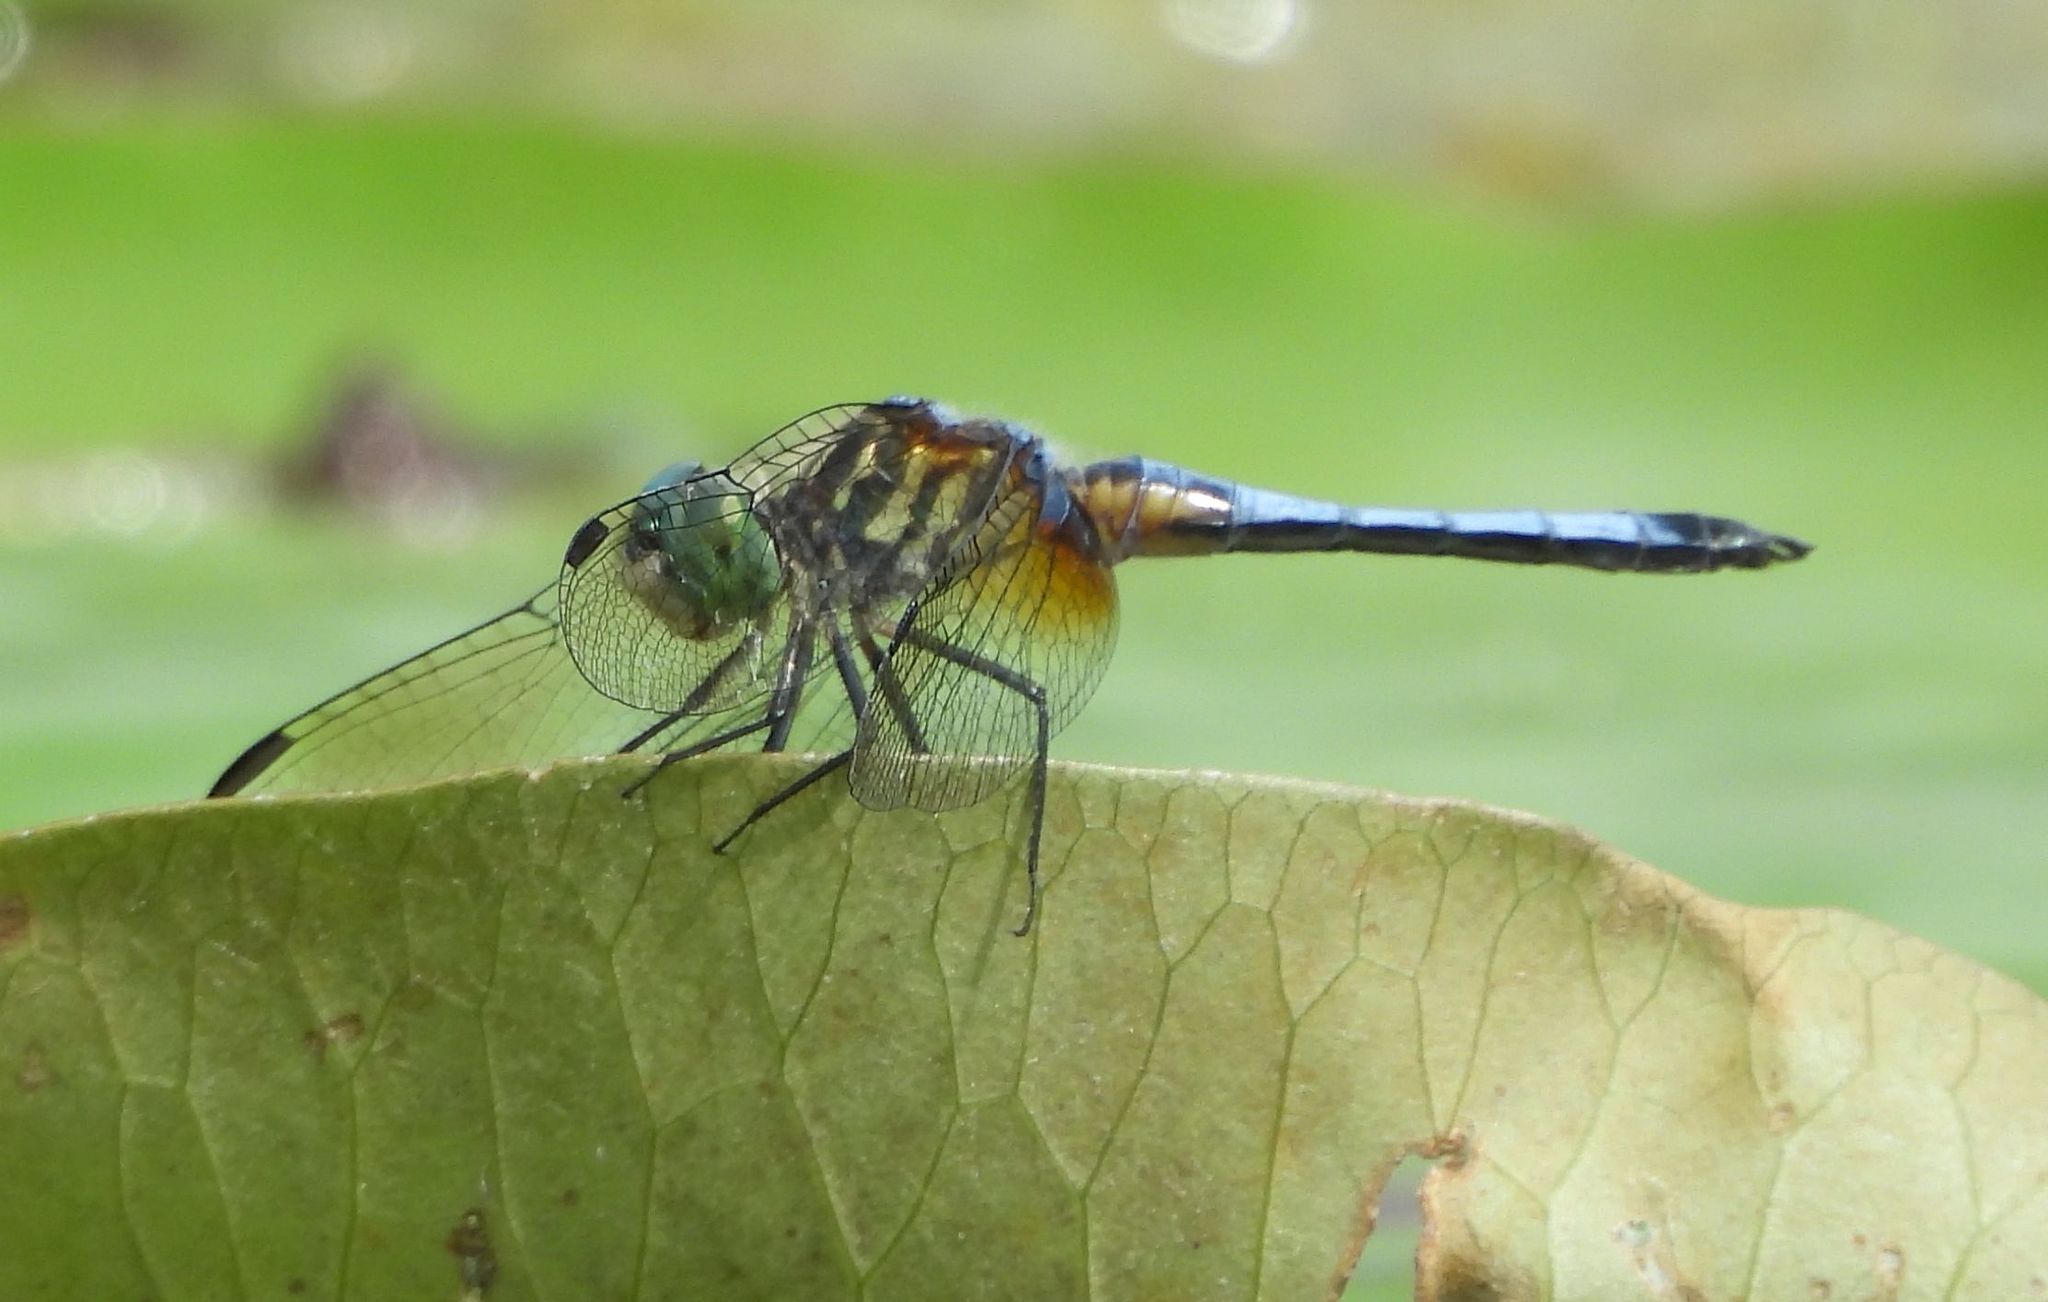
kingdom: Animalia
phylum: Arthropoda
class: Insecta
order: Odonata
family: Libellulidae
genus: Pachydiplax
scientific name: Pachydiplax longipennis
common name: Blue dasher
